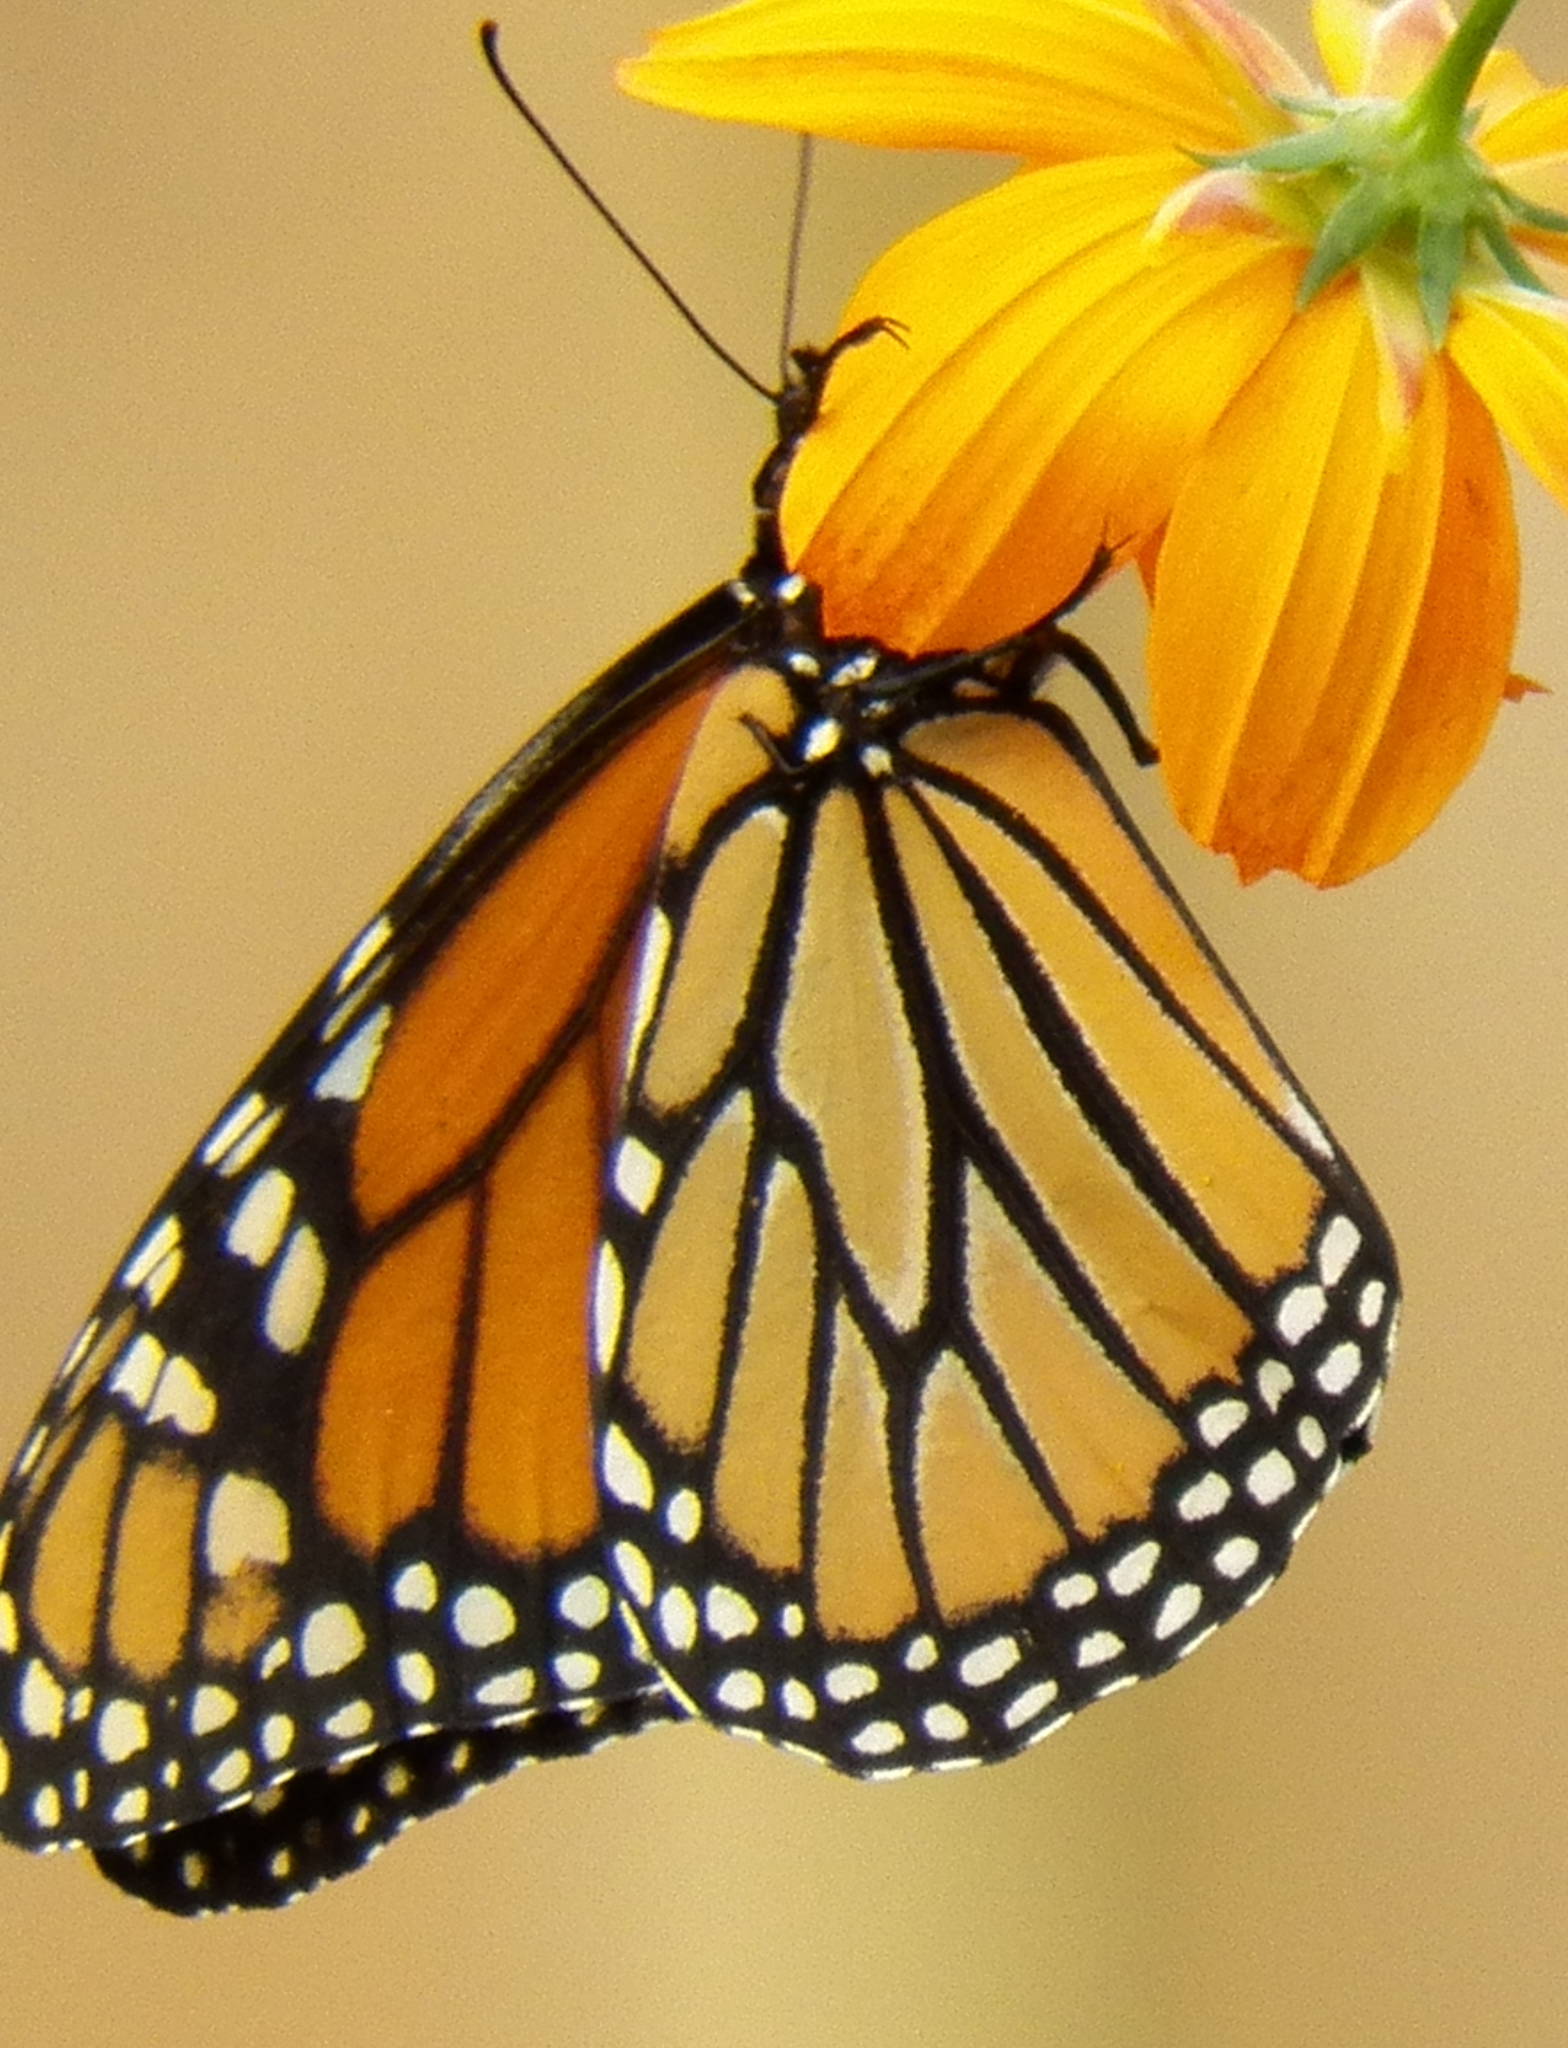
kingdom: Animalia
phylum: Arthropoda
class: Insecta
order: Lepidoptera
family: Nymphalidae
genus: Danaus
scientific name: Danaus plexippus
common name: Monarch
